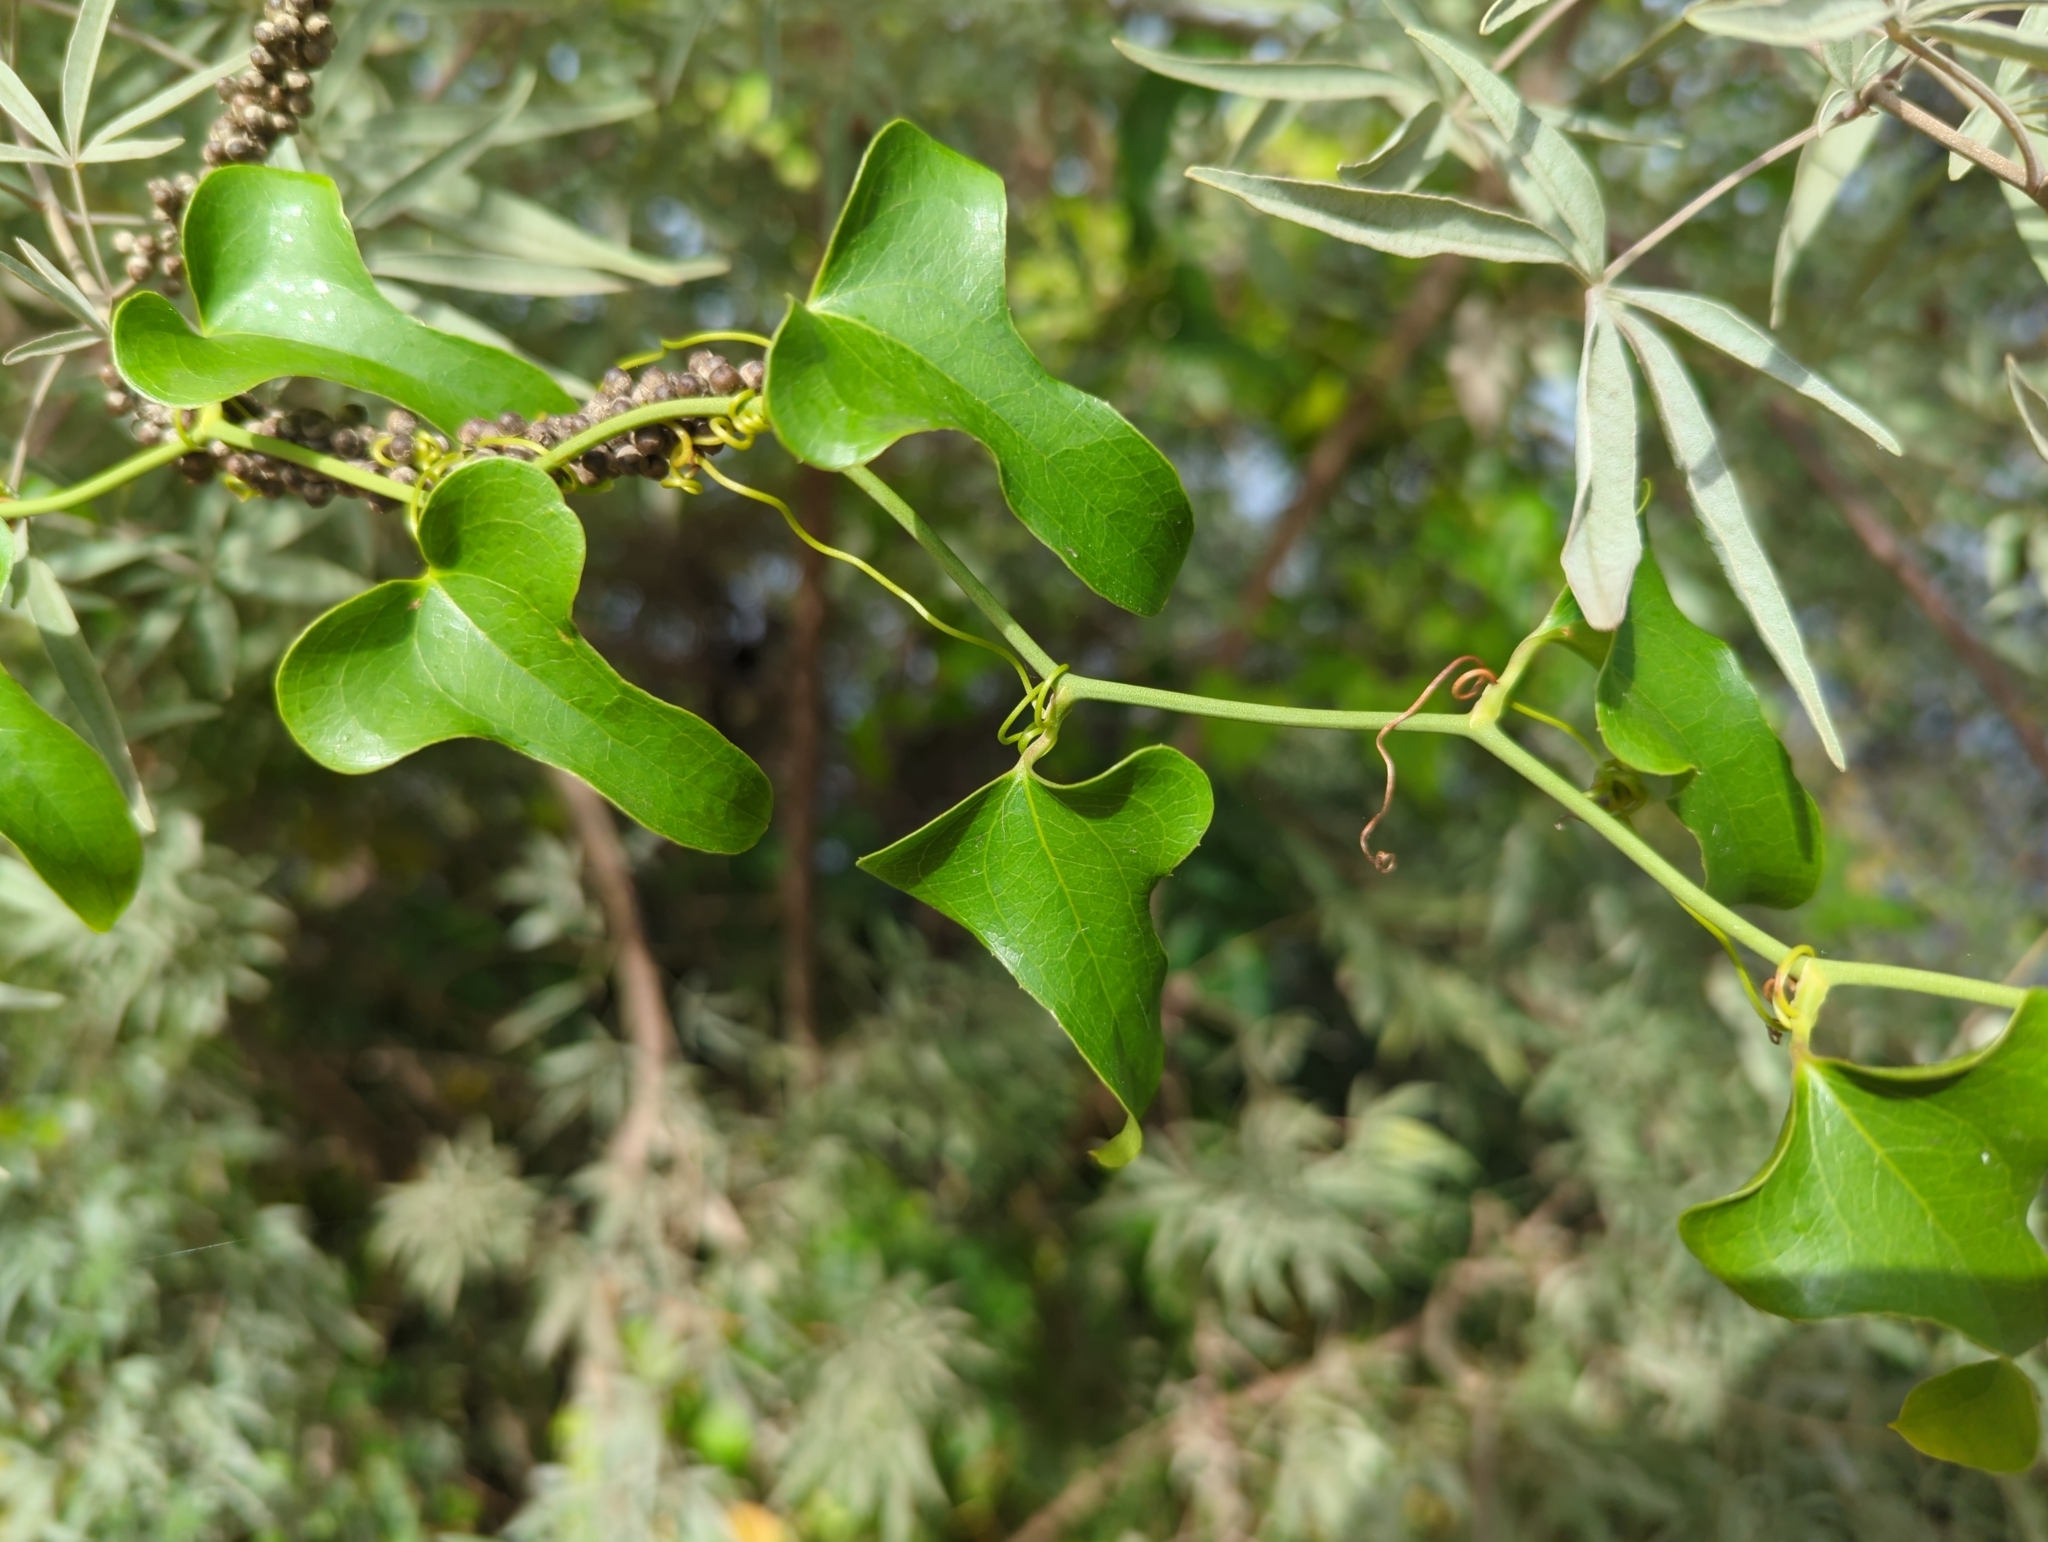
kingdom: Plantae
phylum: Tracheophyta
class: Liliopsida
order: Liliales
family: Smilacaceae
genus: Smilax
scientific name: Smilax bona-nox
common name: Catbrier
